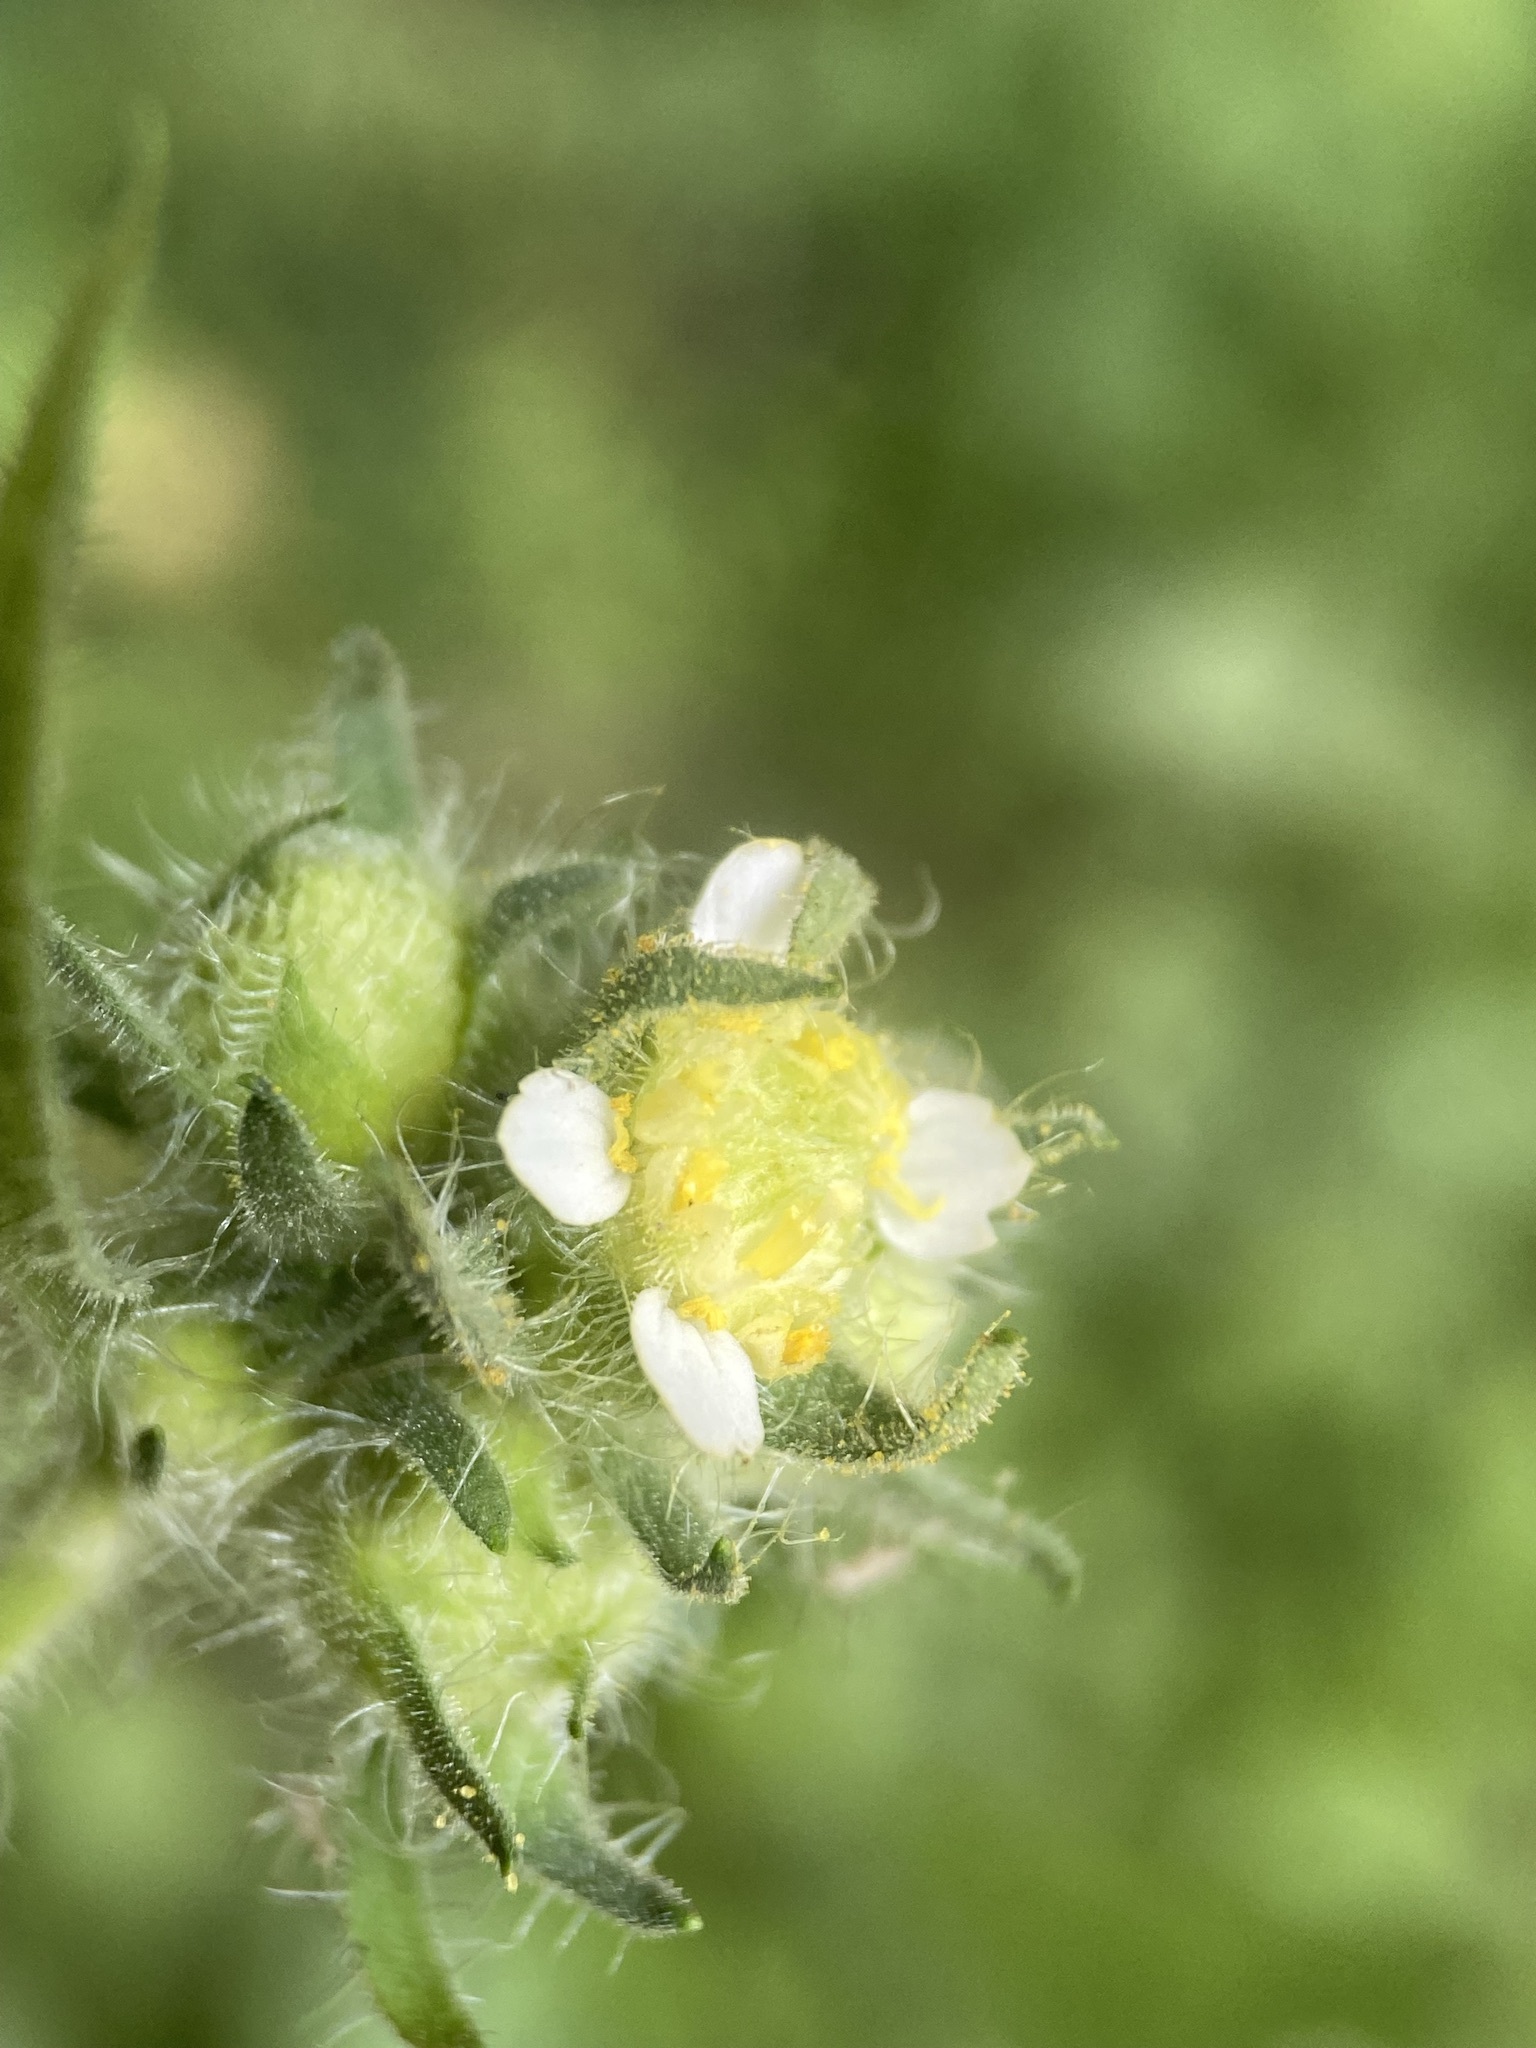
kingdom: Plantae
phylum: Tracheophyta
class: Magnoliopsida
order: Asterales
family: Asteraceae
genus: Polymnia
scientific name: Polymnia canadensis
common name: Pale-flowered leafcup
